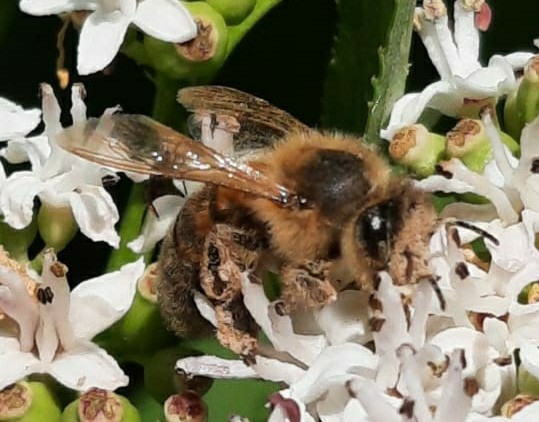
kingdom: Animalia
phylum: Arthropoda
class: Insecta
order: Hymenoptera
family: Apidae
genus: Apis
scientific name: Apis mellifera
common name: Honey bee
